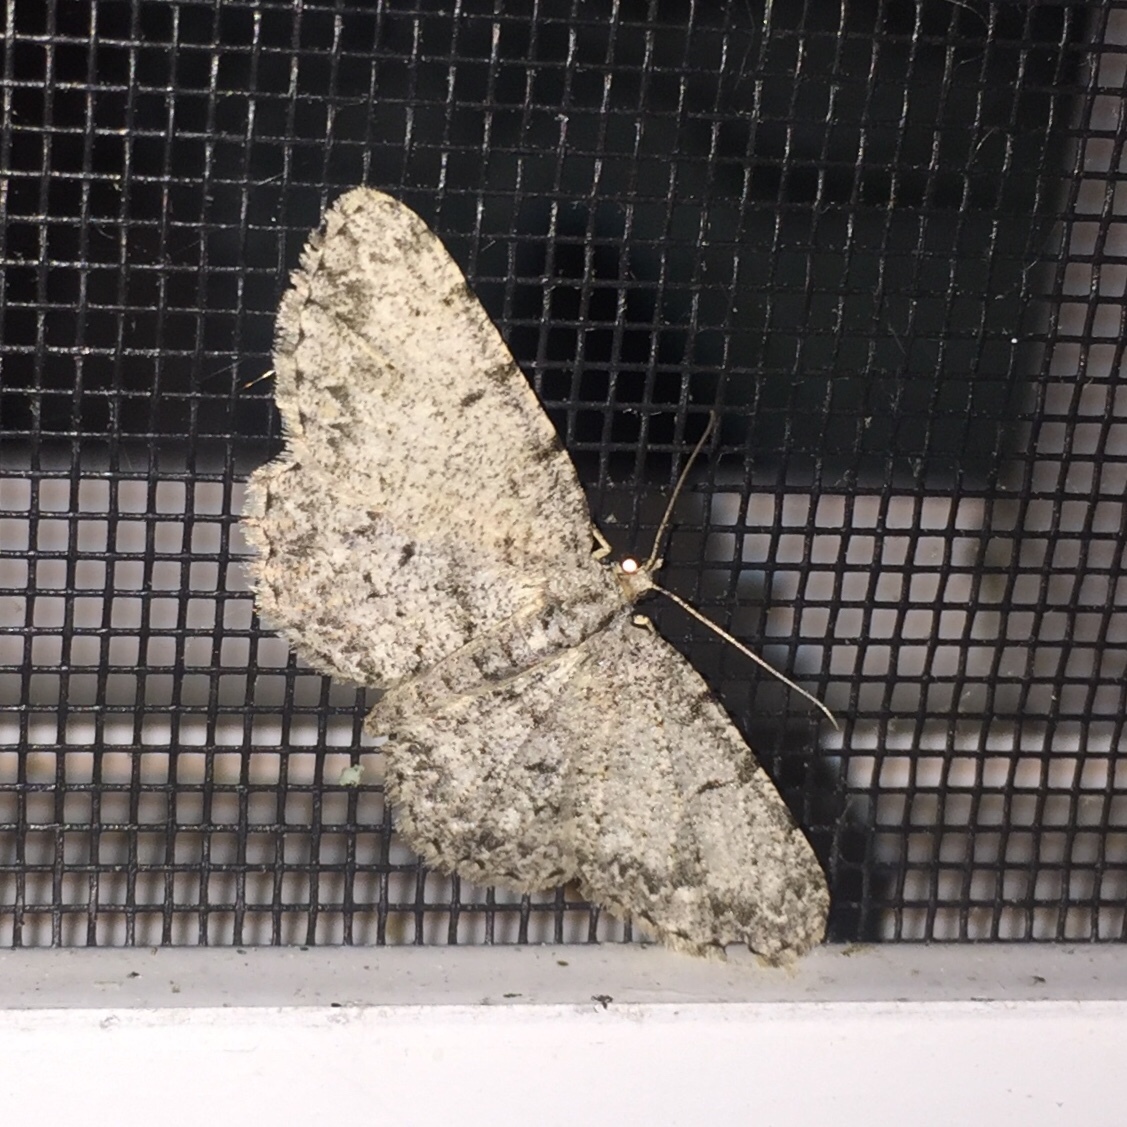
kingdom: Animalia
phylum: Arthropoda
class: Insecta
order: Lepidoptera
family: Geometridae
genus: Protoboarmia
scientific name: Protoboarmia porcelaria
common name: Porcelain gray
